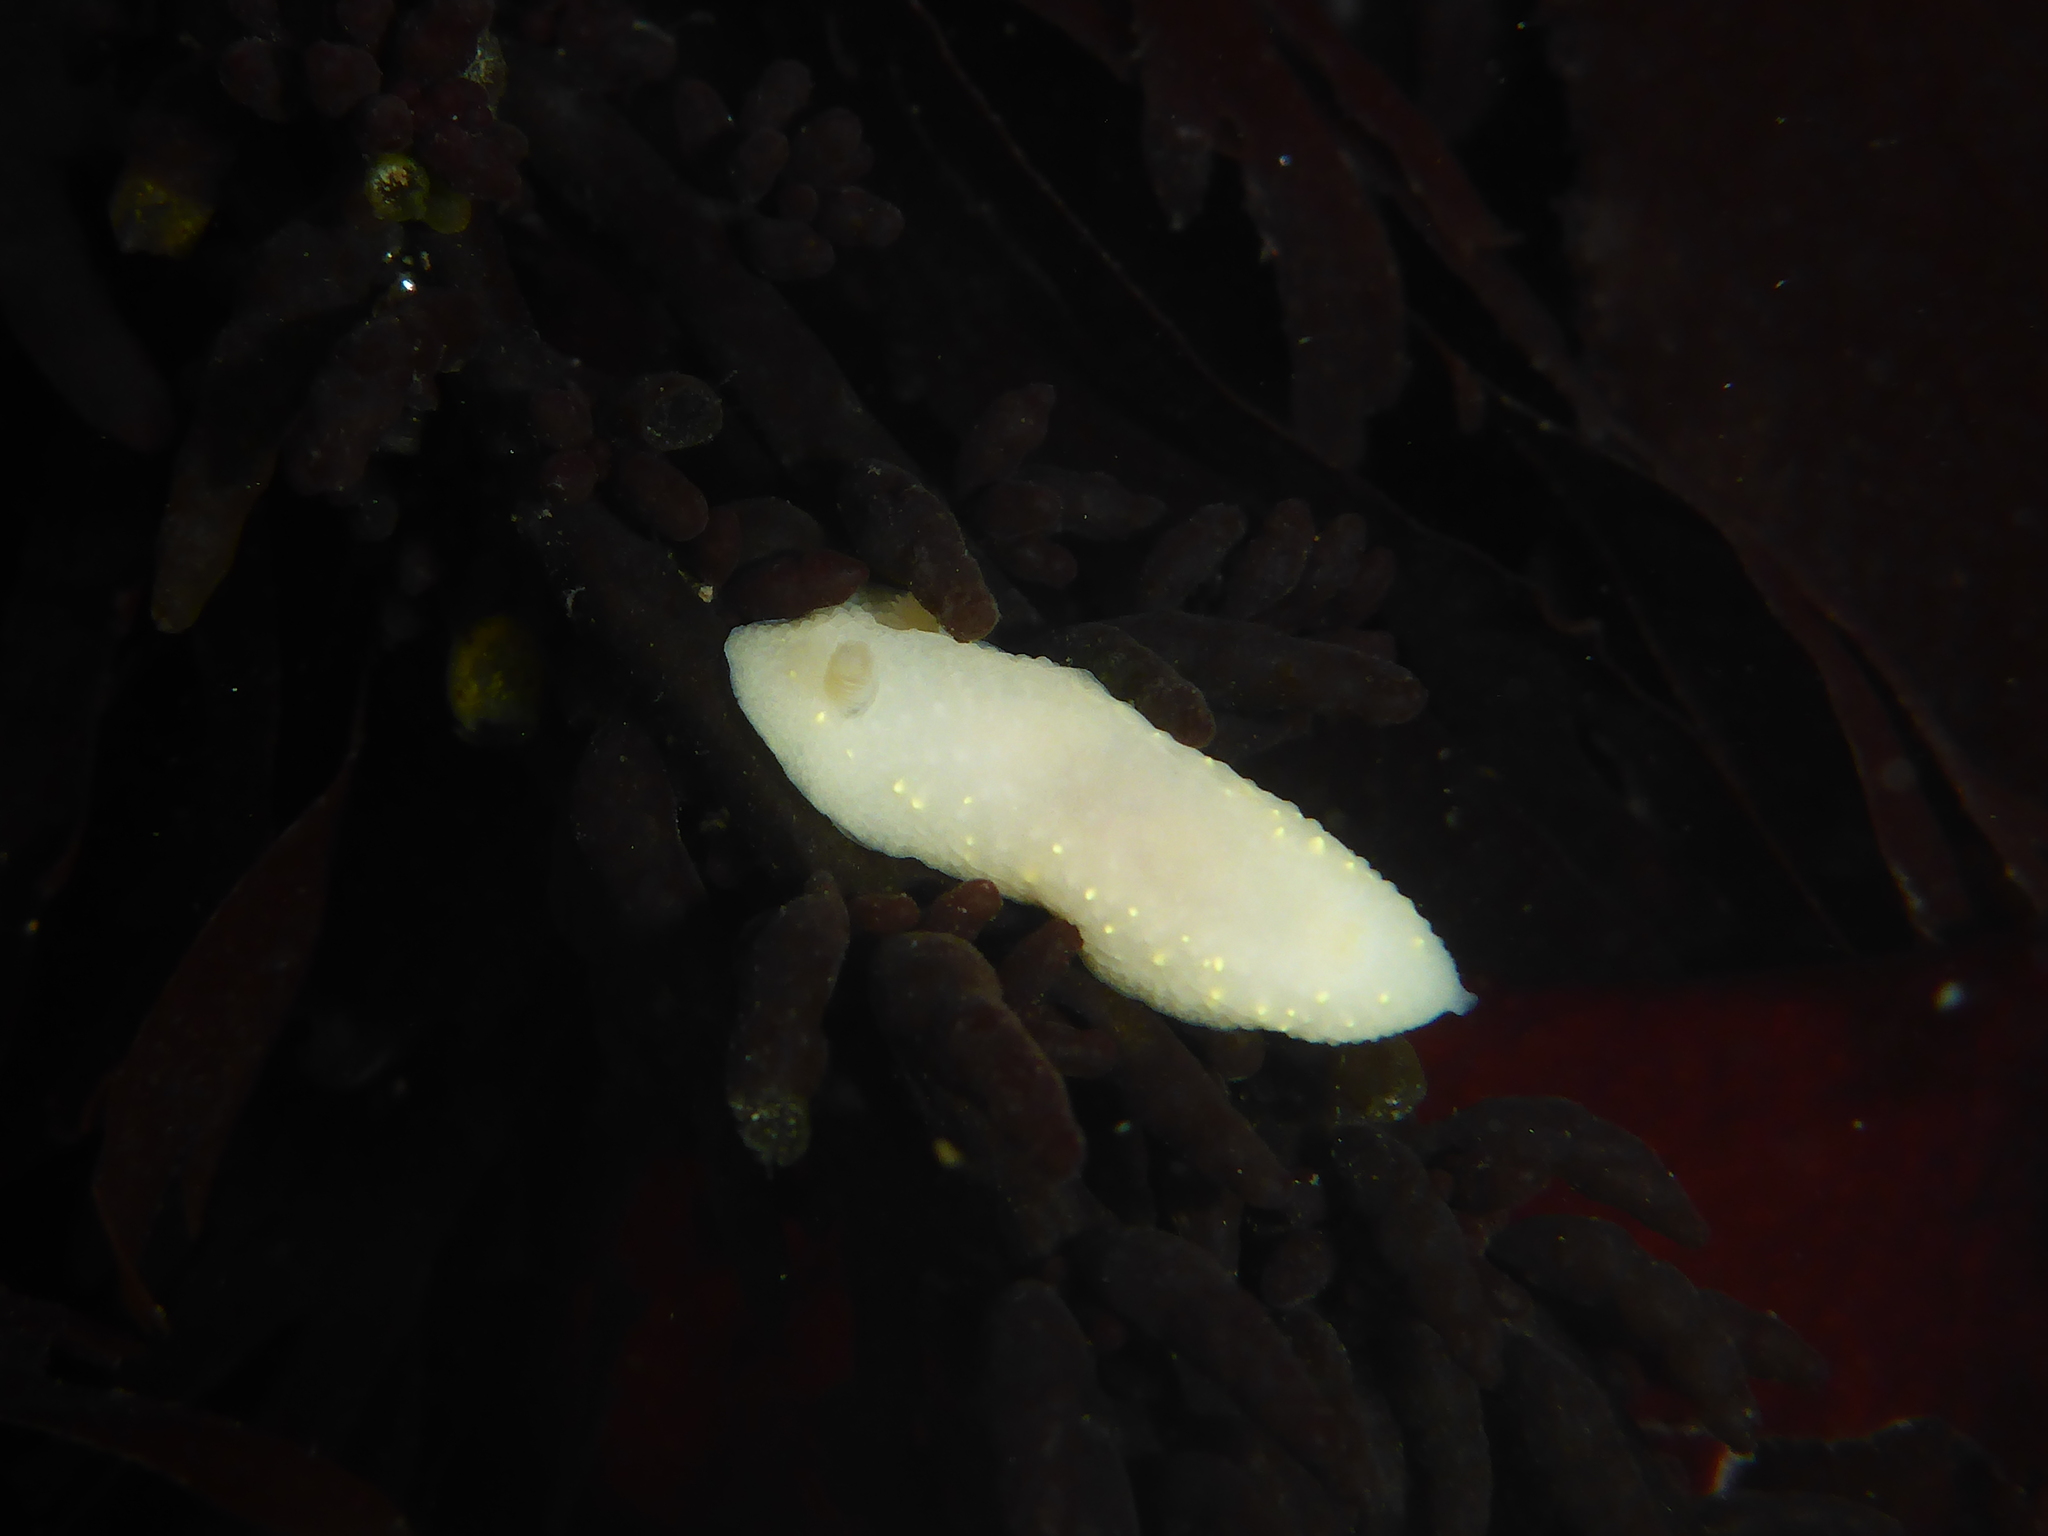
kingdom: Animalia
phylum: Mollusca
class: Gastropoda
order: Nudibranchia
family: Cadlinidae
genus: Cadlina
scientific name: Cadlina modesta
